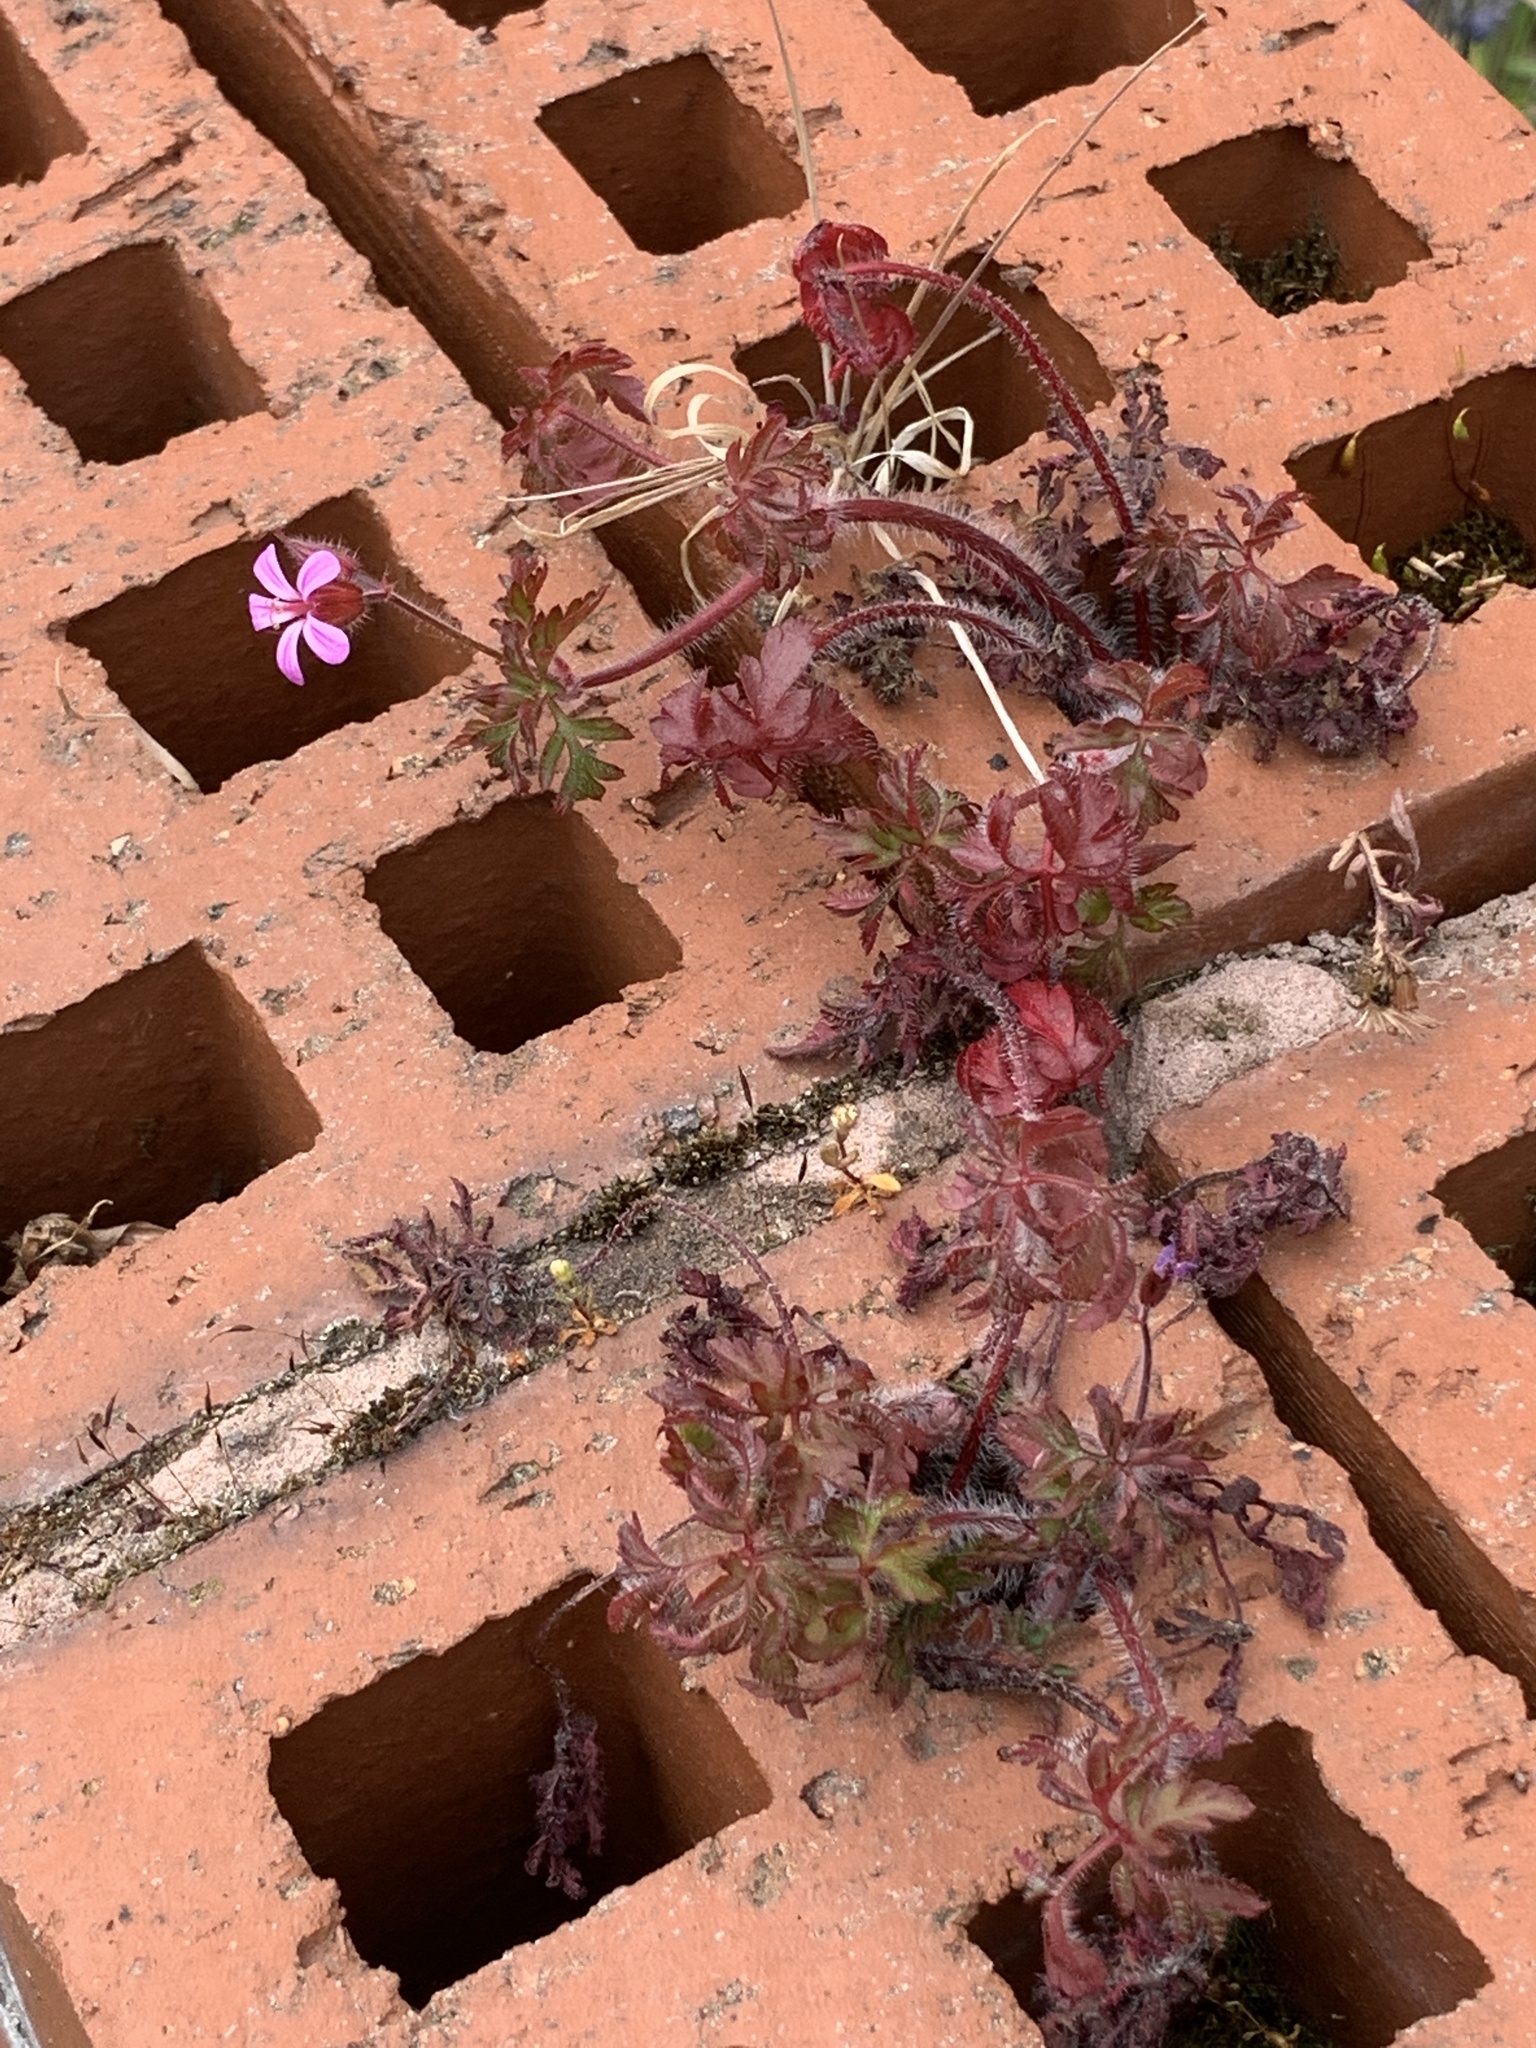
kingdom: Plantae
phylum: Tracheophyta
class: Magnoliopsida
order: Geraniales
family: Geraniaceae
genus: Geranium
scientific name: Geranium robertianum
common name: Herb-robert
